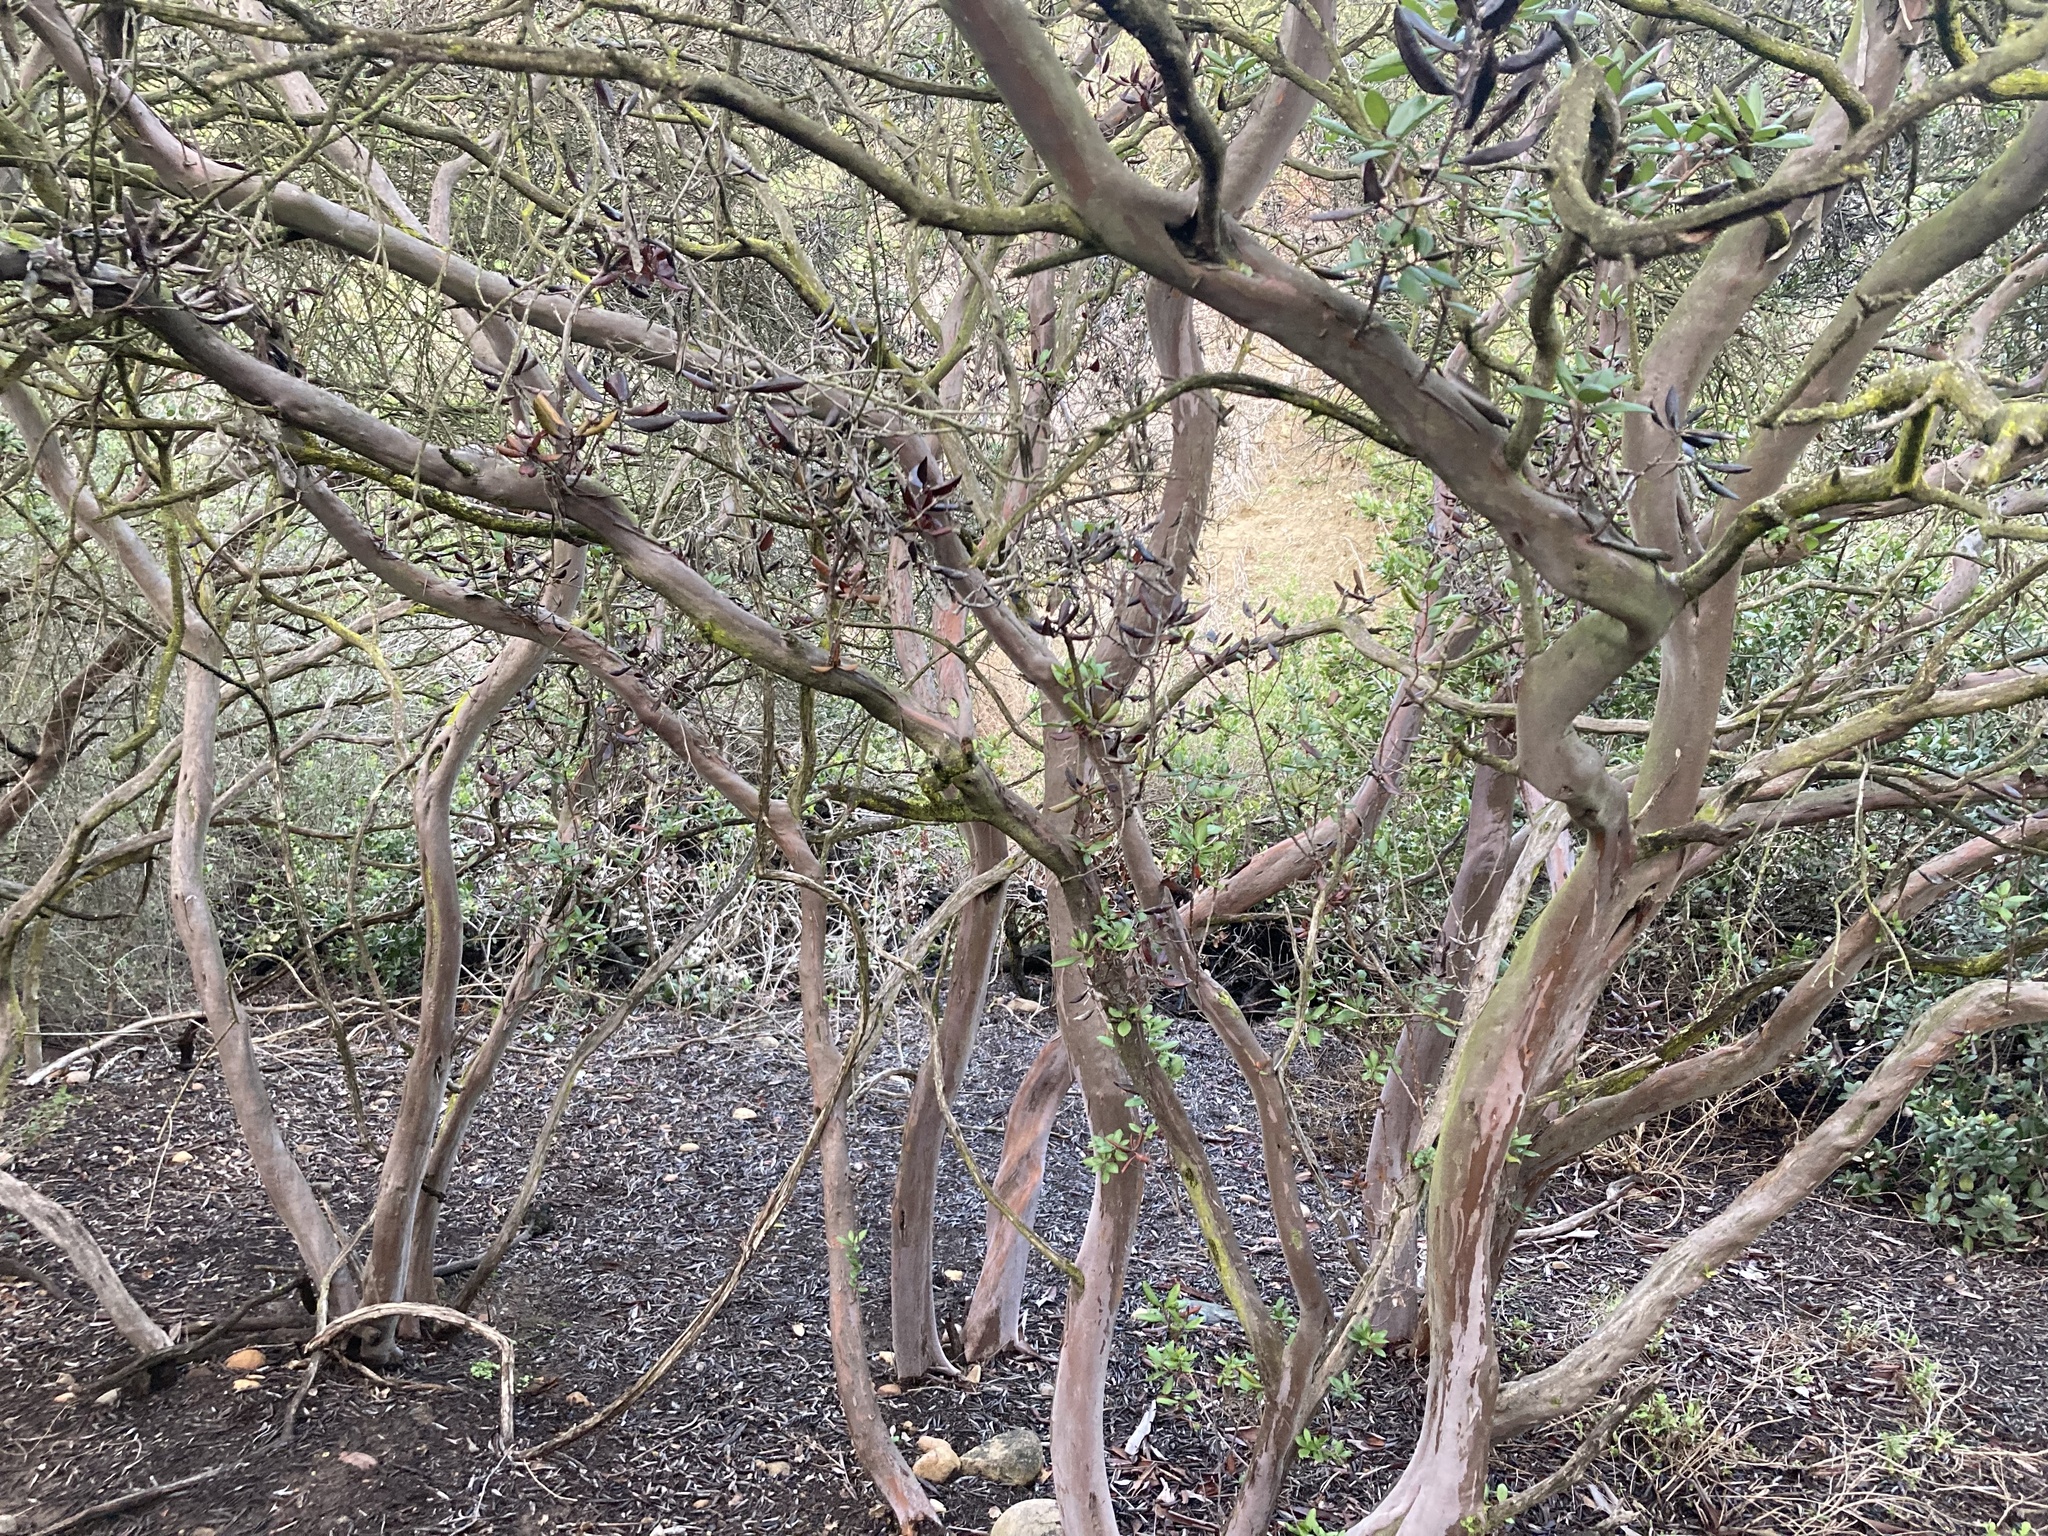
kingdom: Plantae
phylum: Tracheophyta
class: Magnoliopsida
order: Ericales
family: Ericaceae
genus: Arctostaphylos
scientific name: Arctostaphylos bicolor
